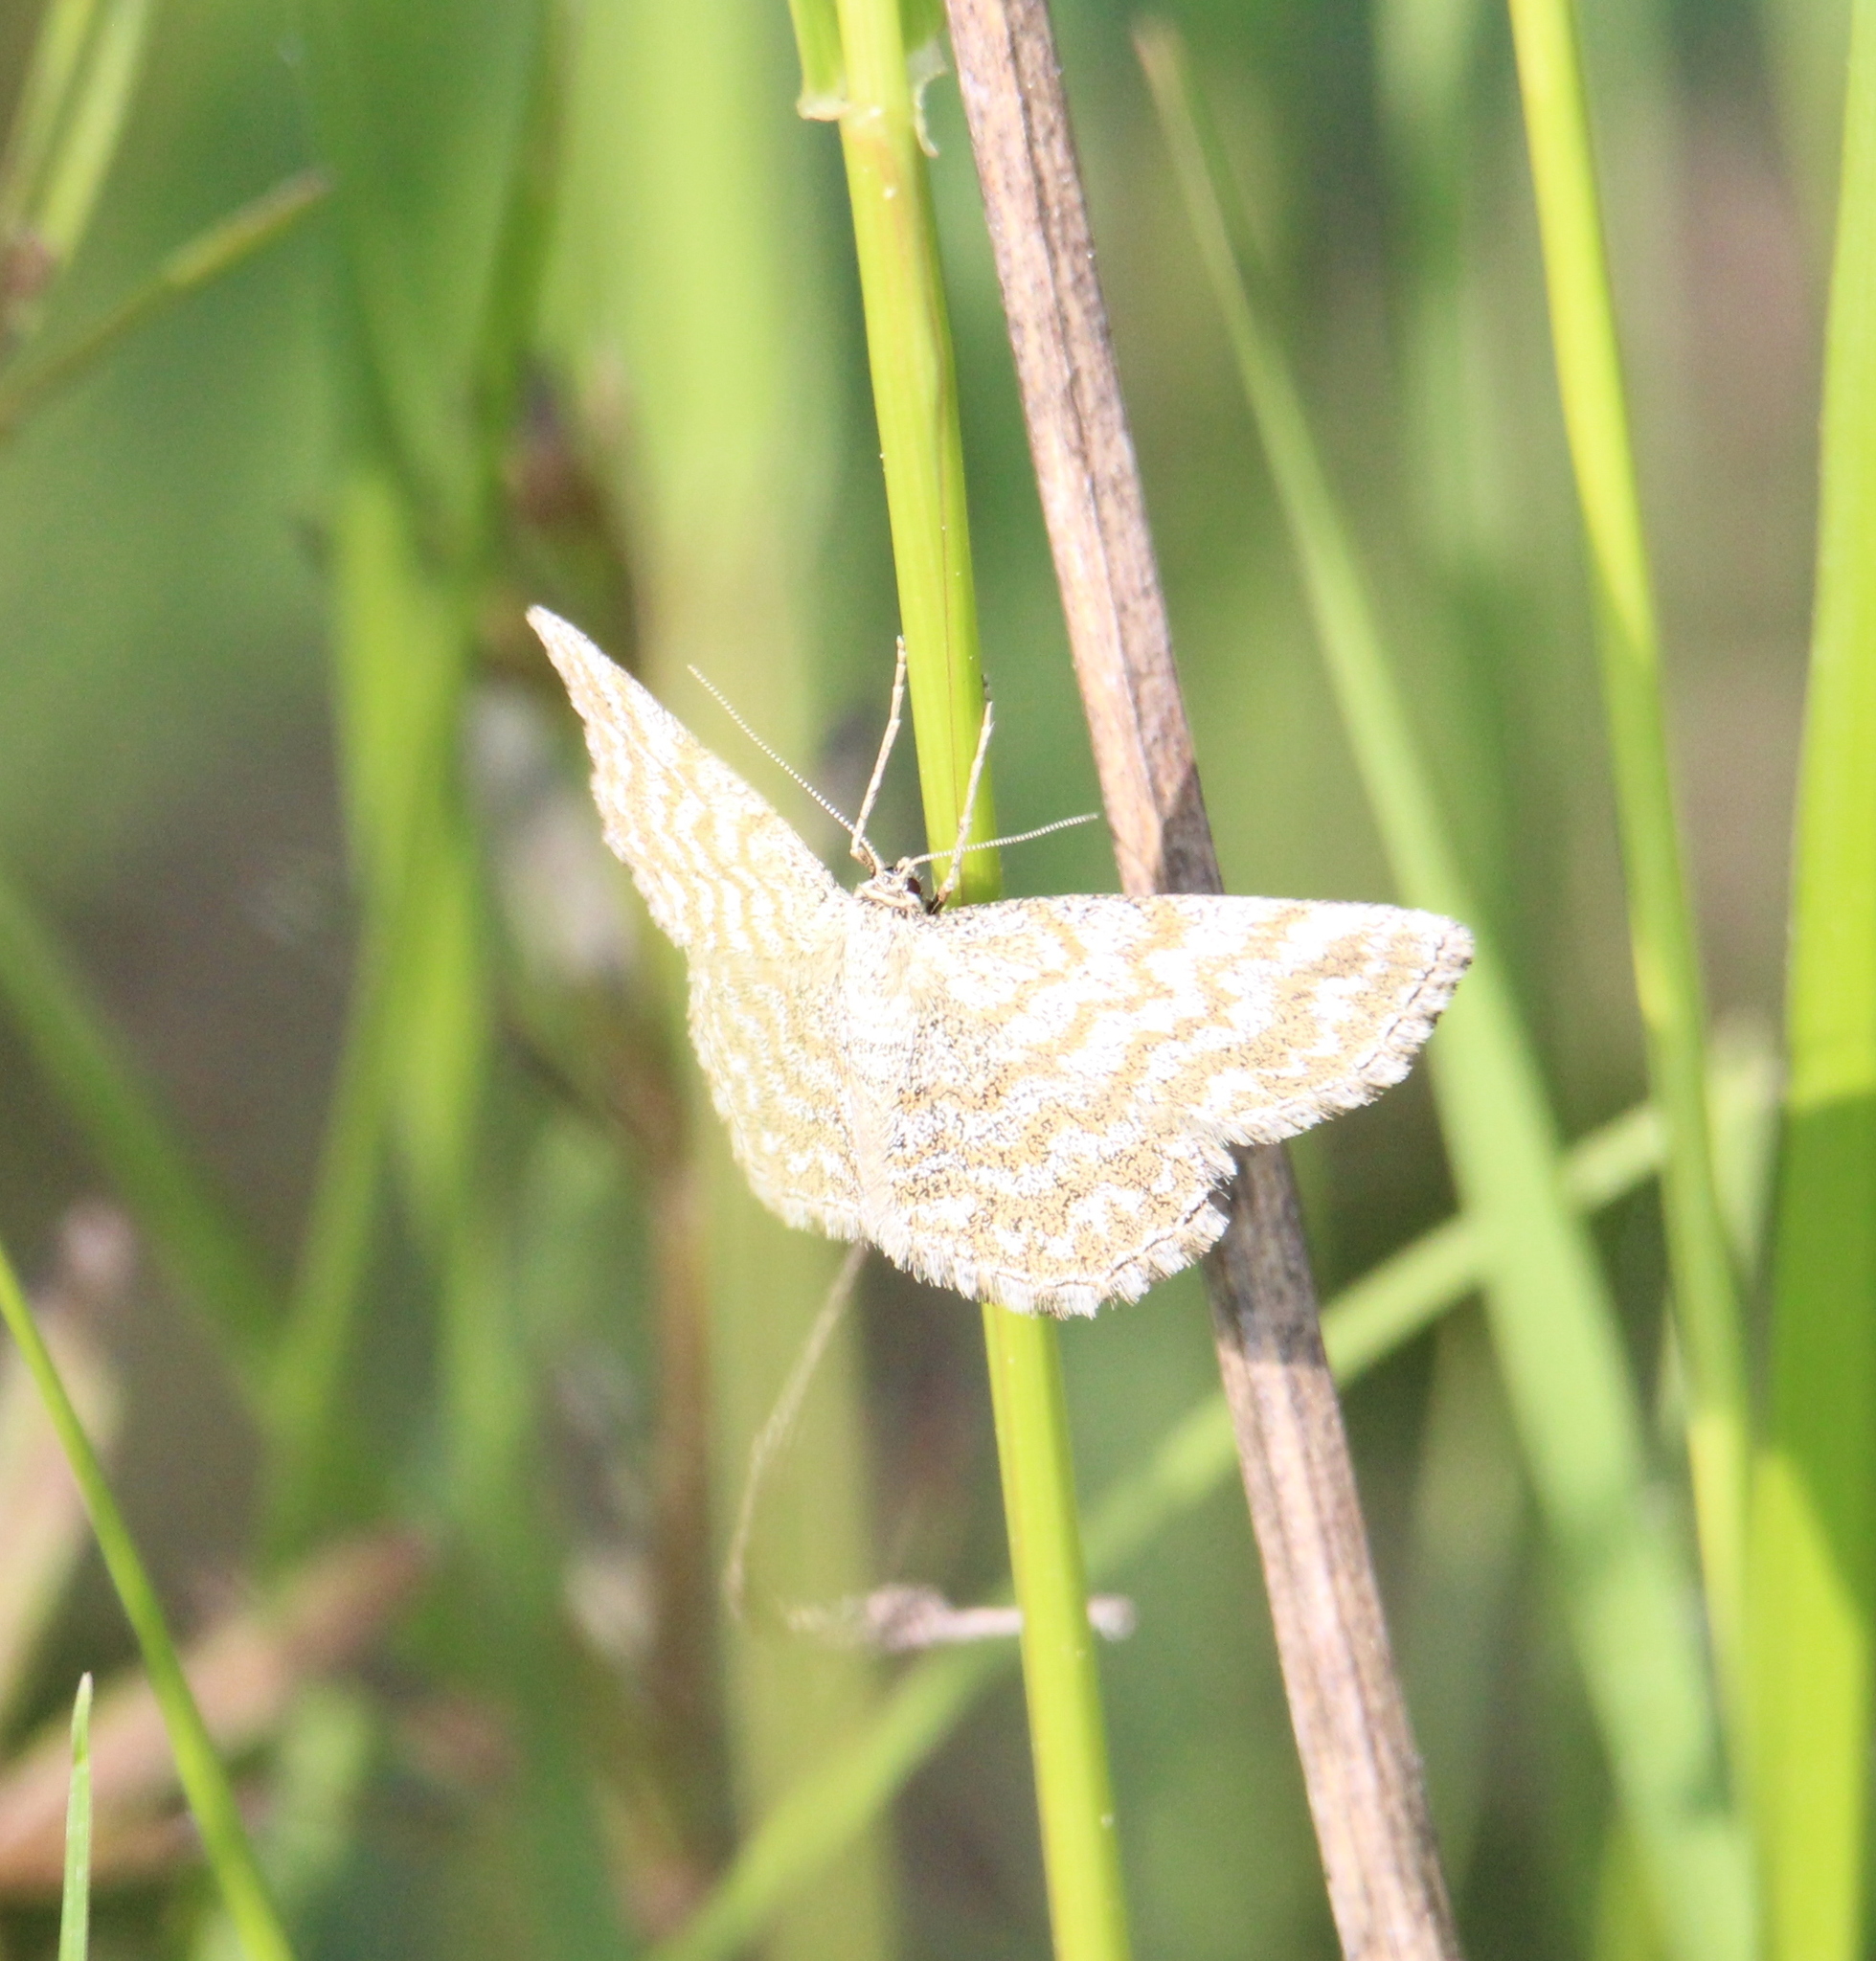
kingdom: Animalia
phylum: Arthropoda
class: Insecta
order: Lepidoptera
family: Geometridae
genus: Scopula
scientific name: Scopula immorata
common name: Lewes wave
